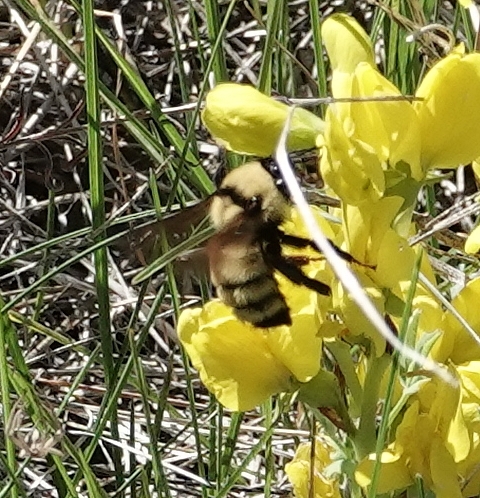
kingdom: Animalia
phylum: Arthropoda
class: Insecta
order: Hymenoptera
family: Apidae
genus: Bombus
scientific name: Bombus fervidus
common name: Yellow bumble bee
